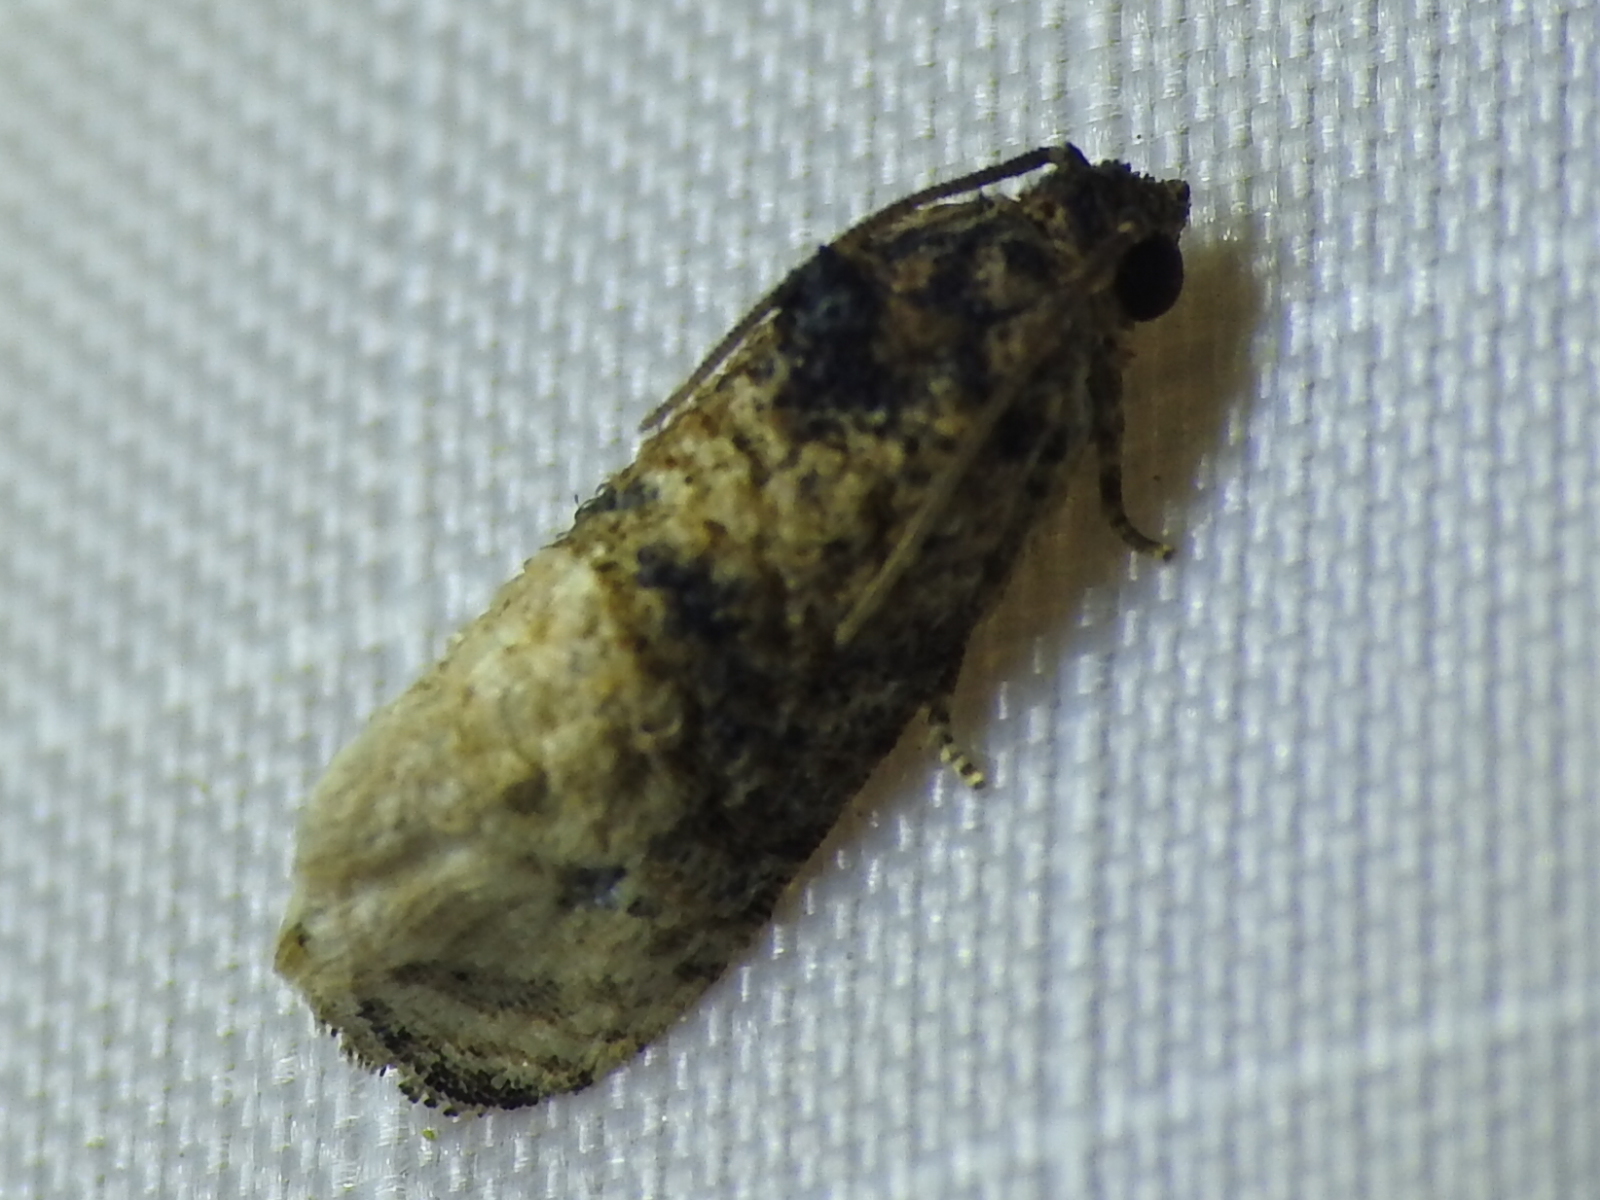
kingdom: Animalia
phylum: Arthropoda
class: Insecta
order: Lepidoptera
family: Tortricidae
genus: Ecdytolopha
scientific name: Ecdytolopha mana
